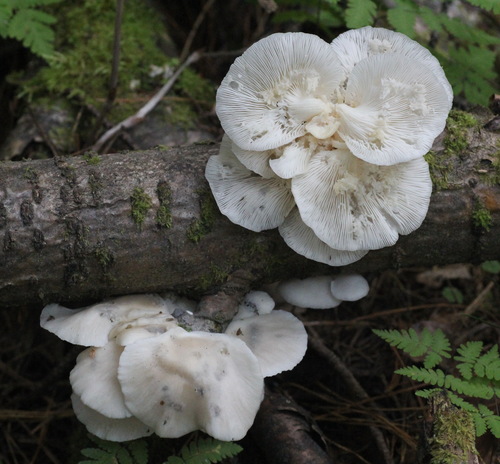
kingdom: Fungi
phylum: Basidiomycota
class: Agaricomycetes
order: Agaricales
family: Pleurotaceae
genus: Pleurotus
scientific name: Pleurotus pulmonarius
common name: Pale oyster
